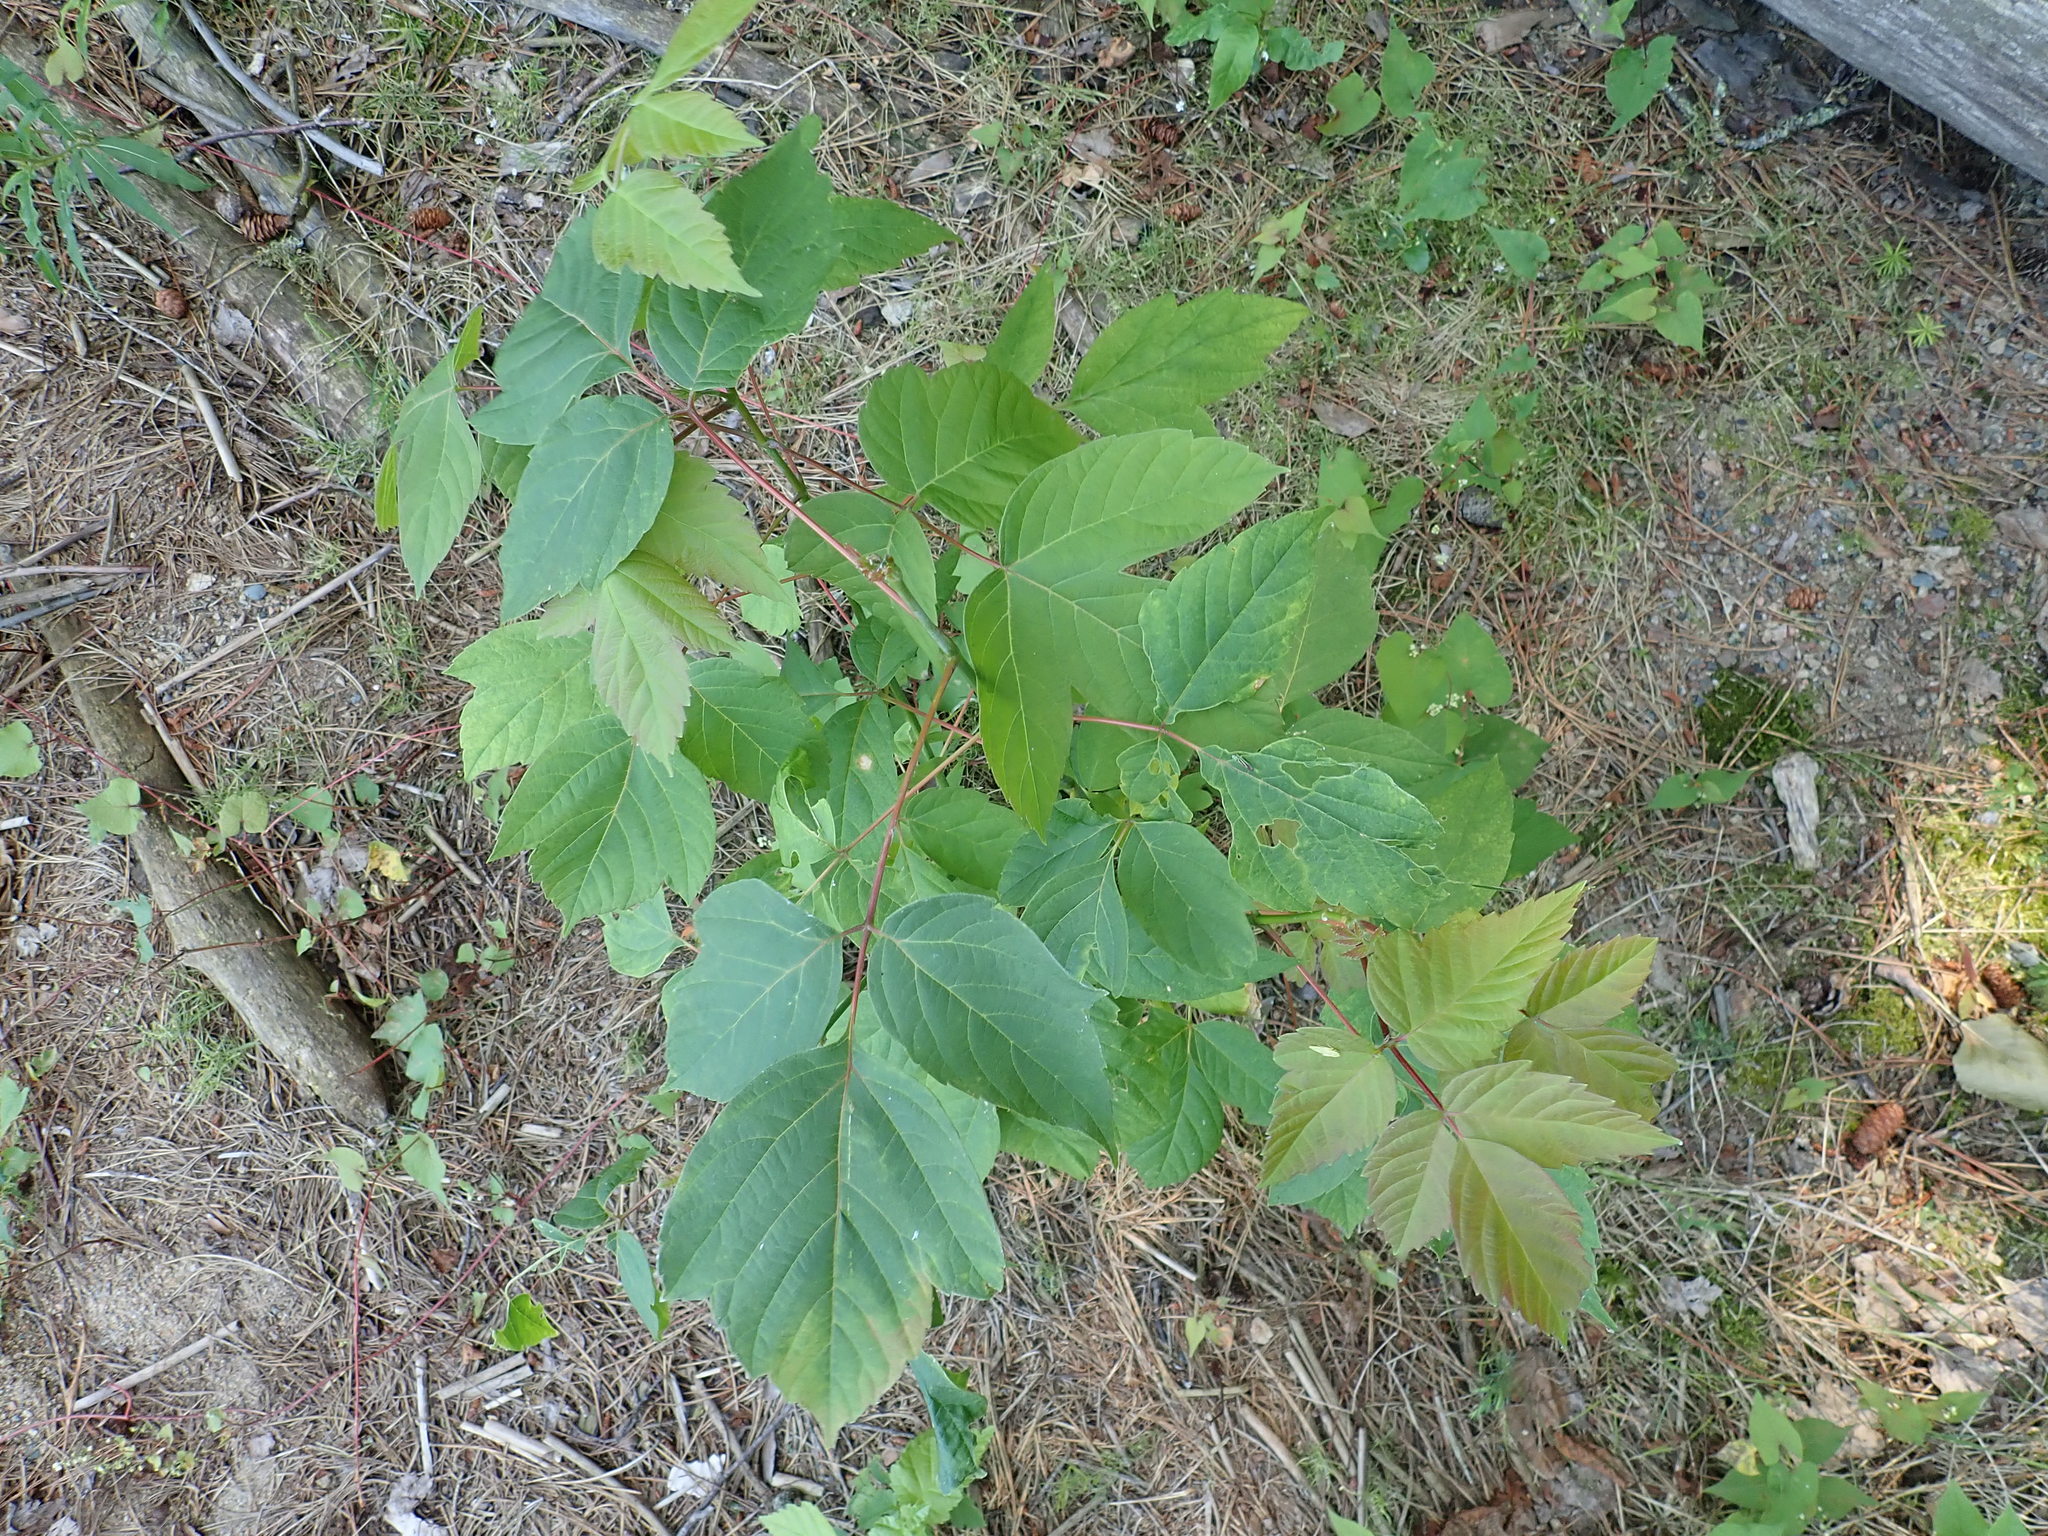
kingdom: Plantae
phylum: Tracheophyta
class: Magnoliopsida
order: Sapindales
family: Sapindaceae
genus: Acer
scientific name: Acer negundo
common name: Ashleaf maple
